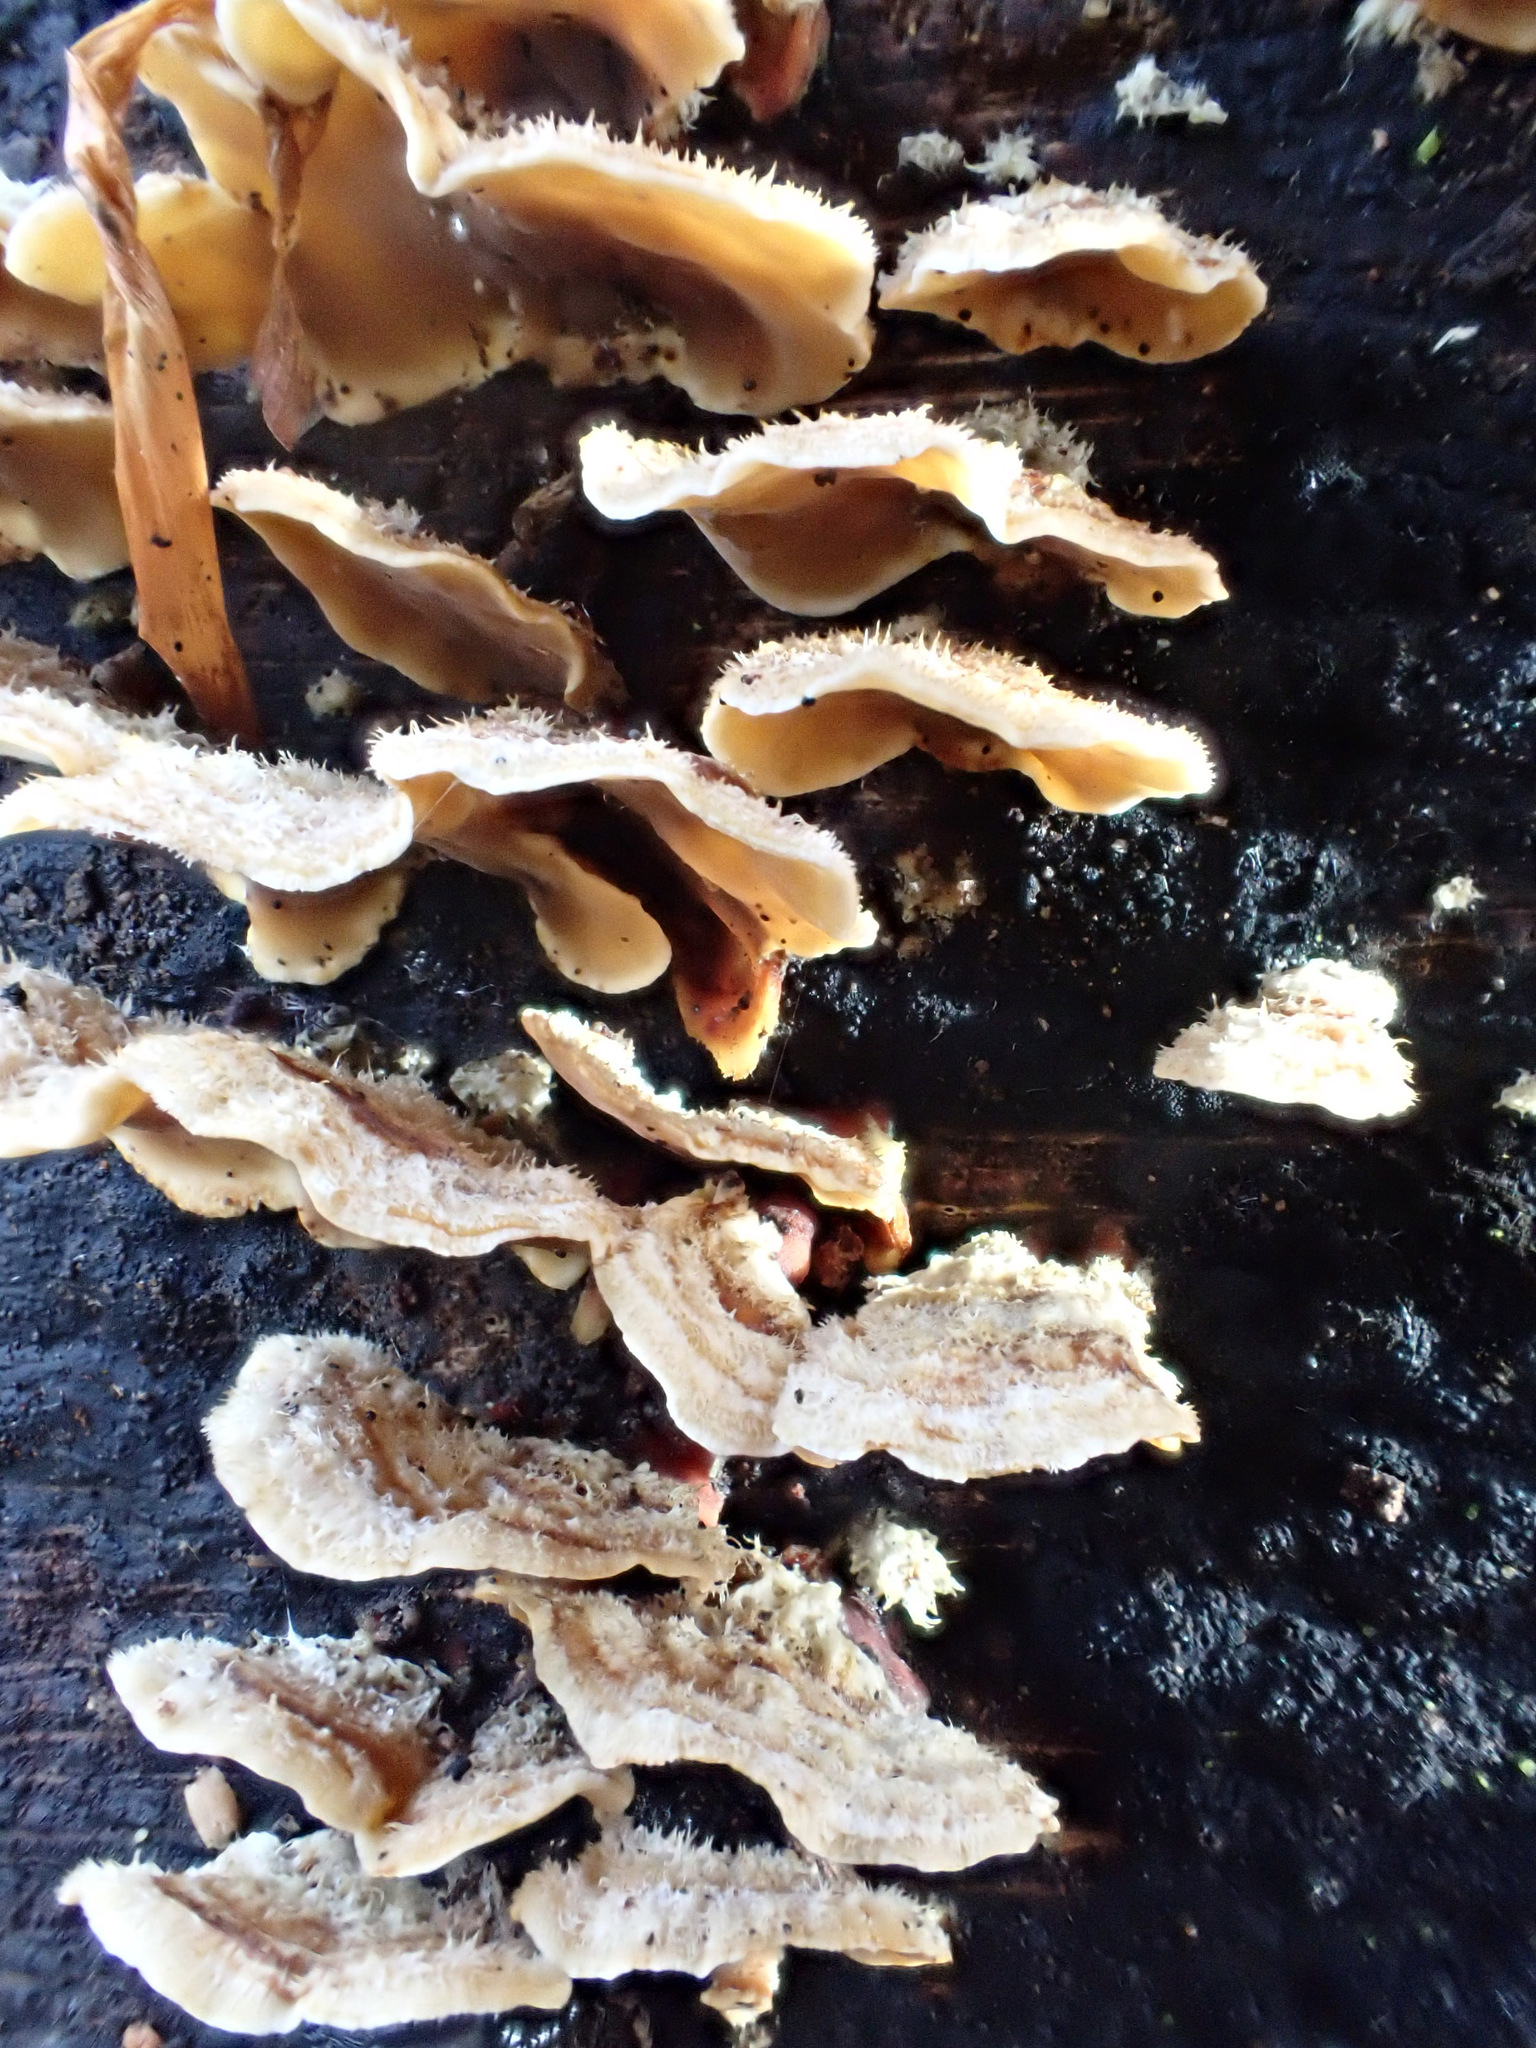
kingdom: Fungi
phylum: Basidiomycota
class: Agaricomycetes
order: Russulales
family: Stereaceae
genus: Stereum
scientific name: Stereum hirsutum
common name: Hairy curtain crust
